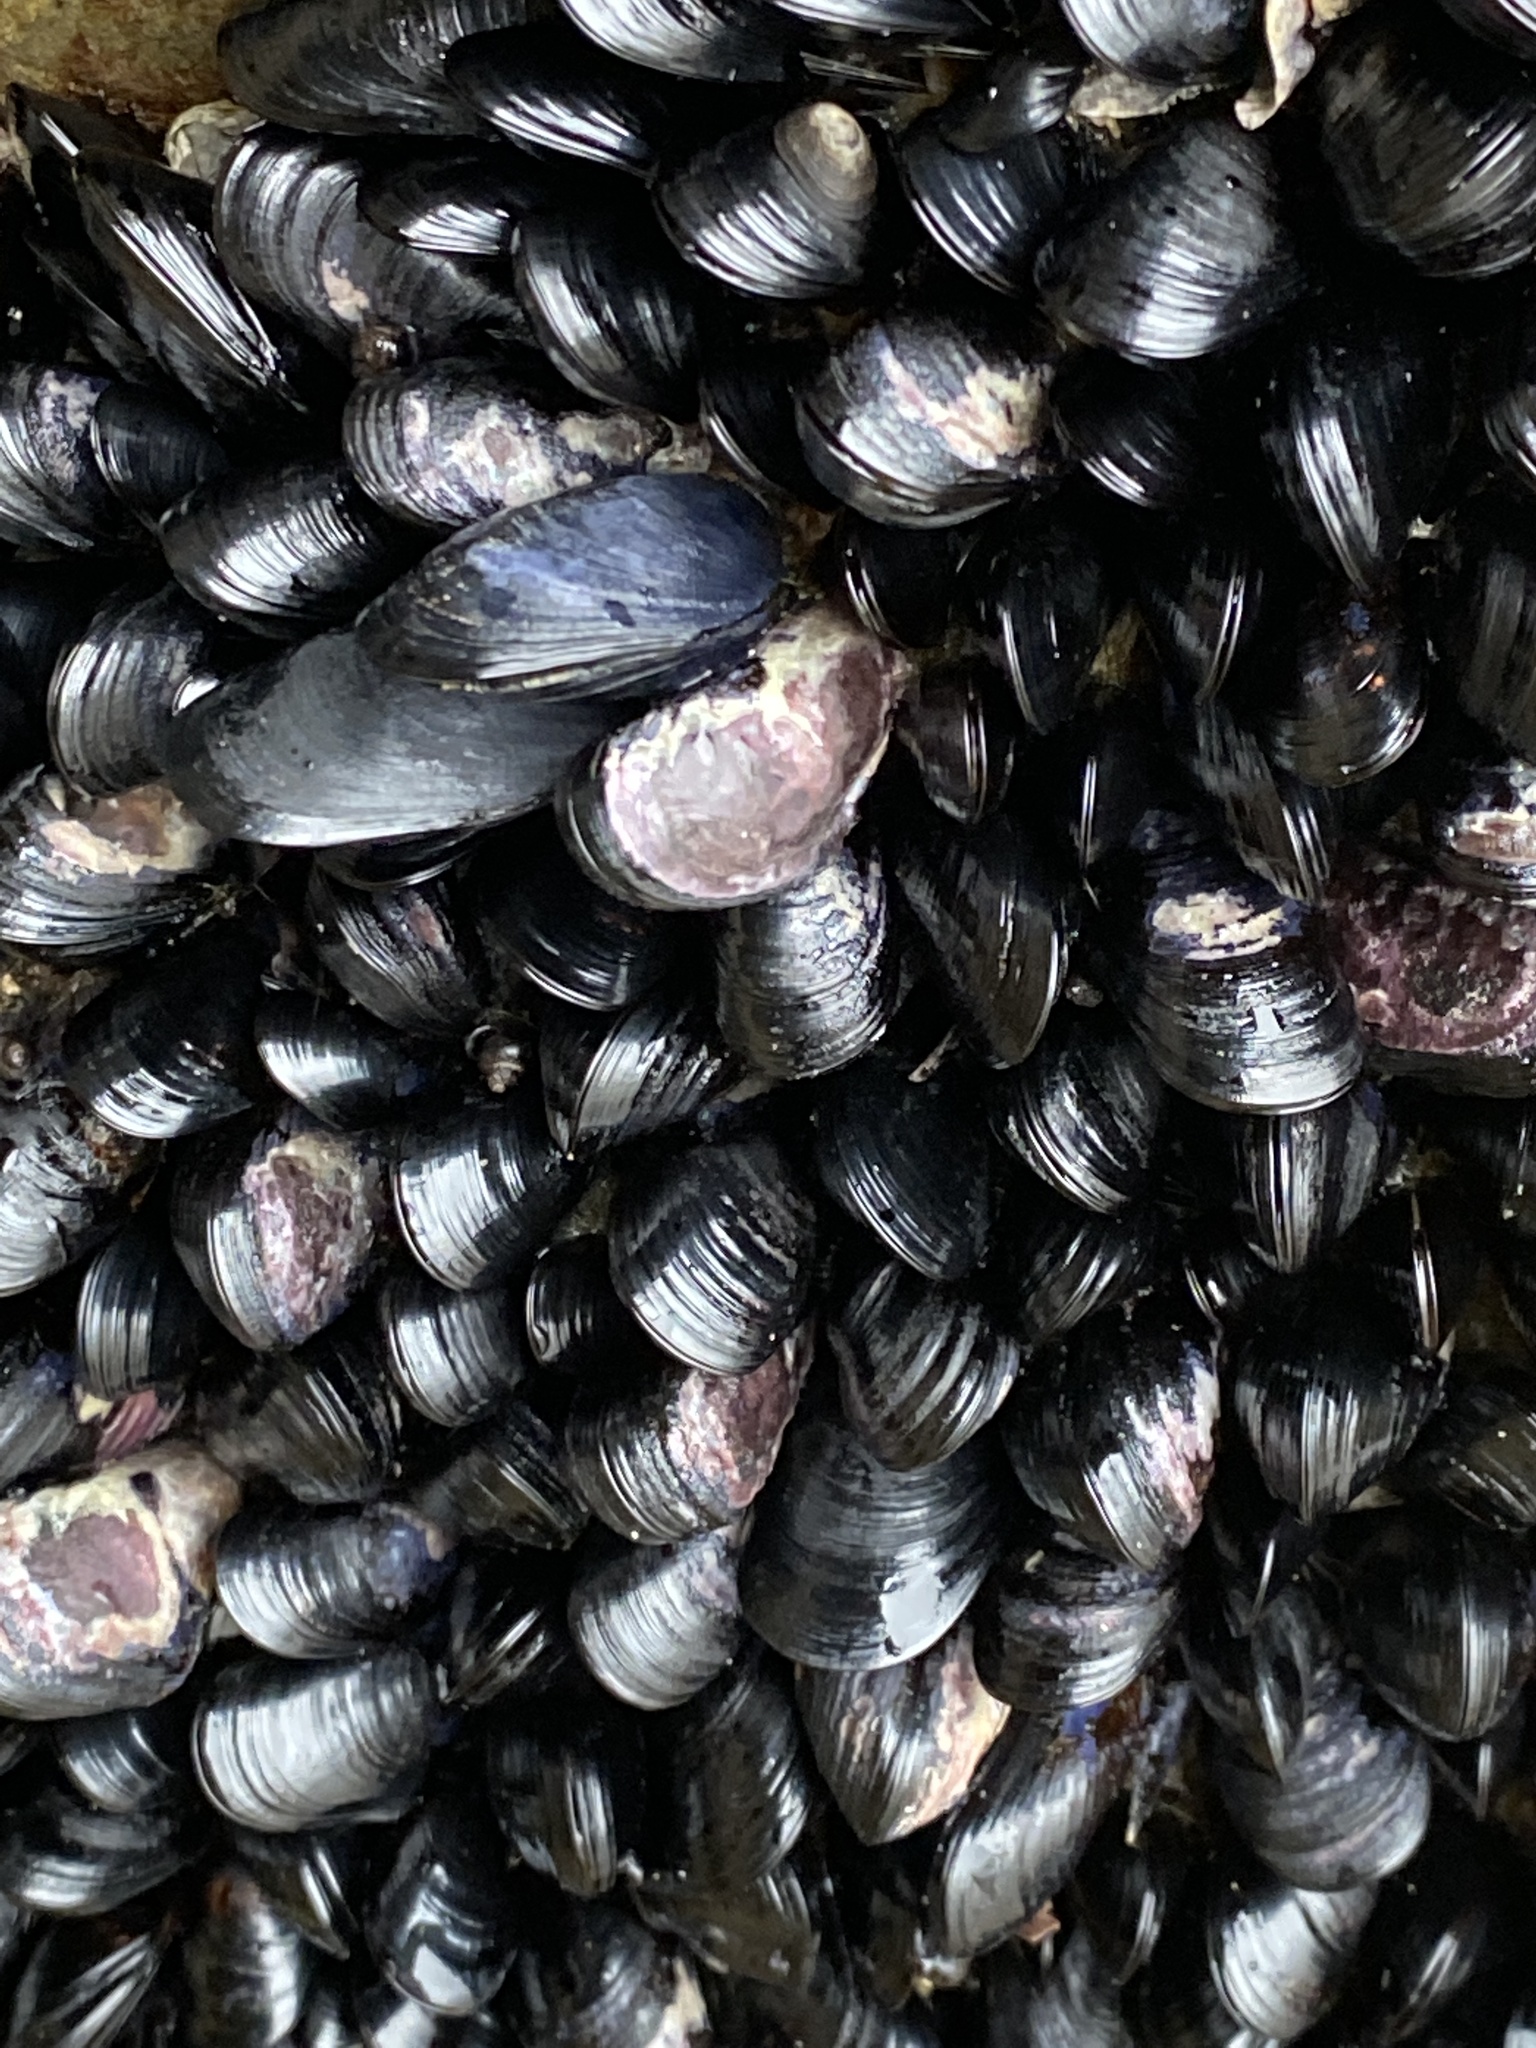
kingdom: Animalia
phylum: Mollusca
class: Bivalvia
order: Mytilida
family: Mytilidae
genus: Xenostrobus
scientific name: Xenostrobus neozelanicus
